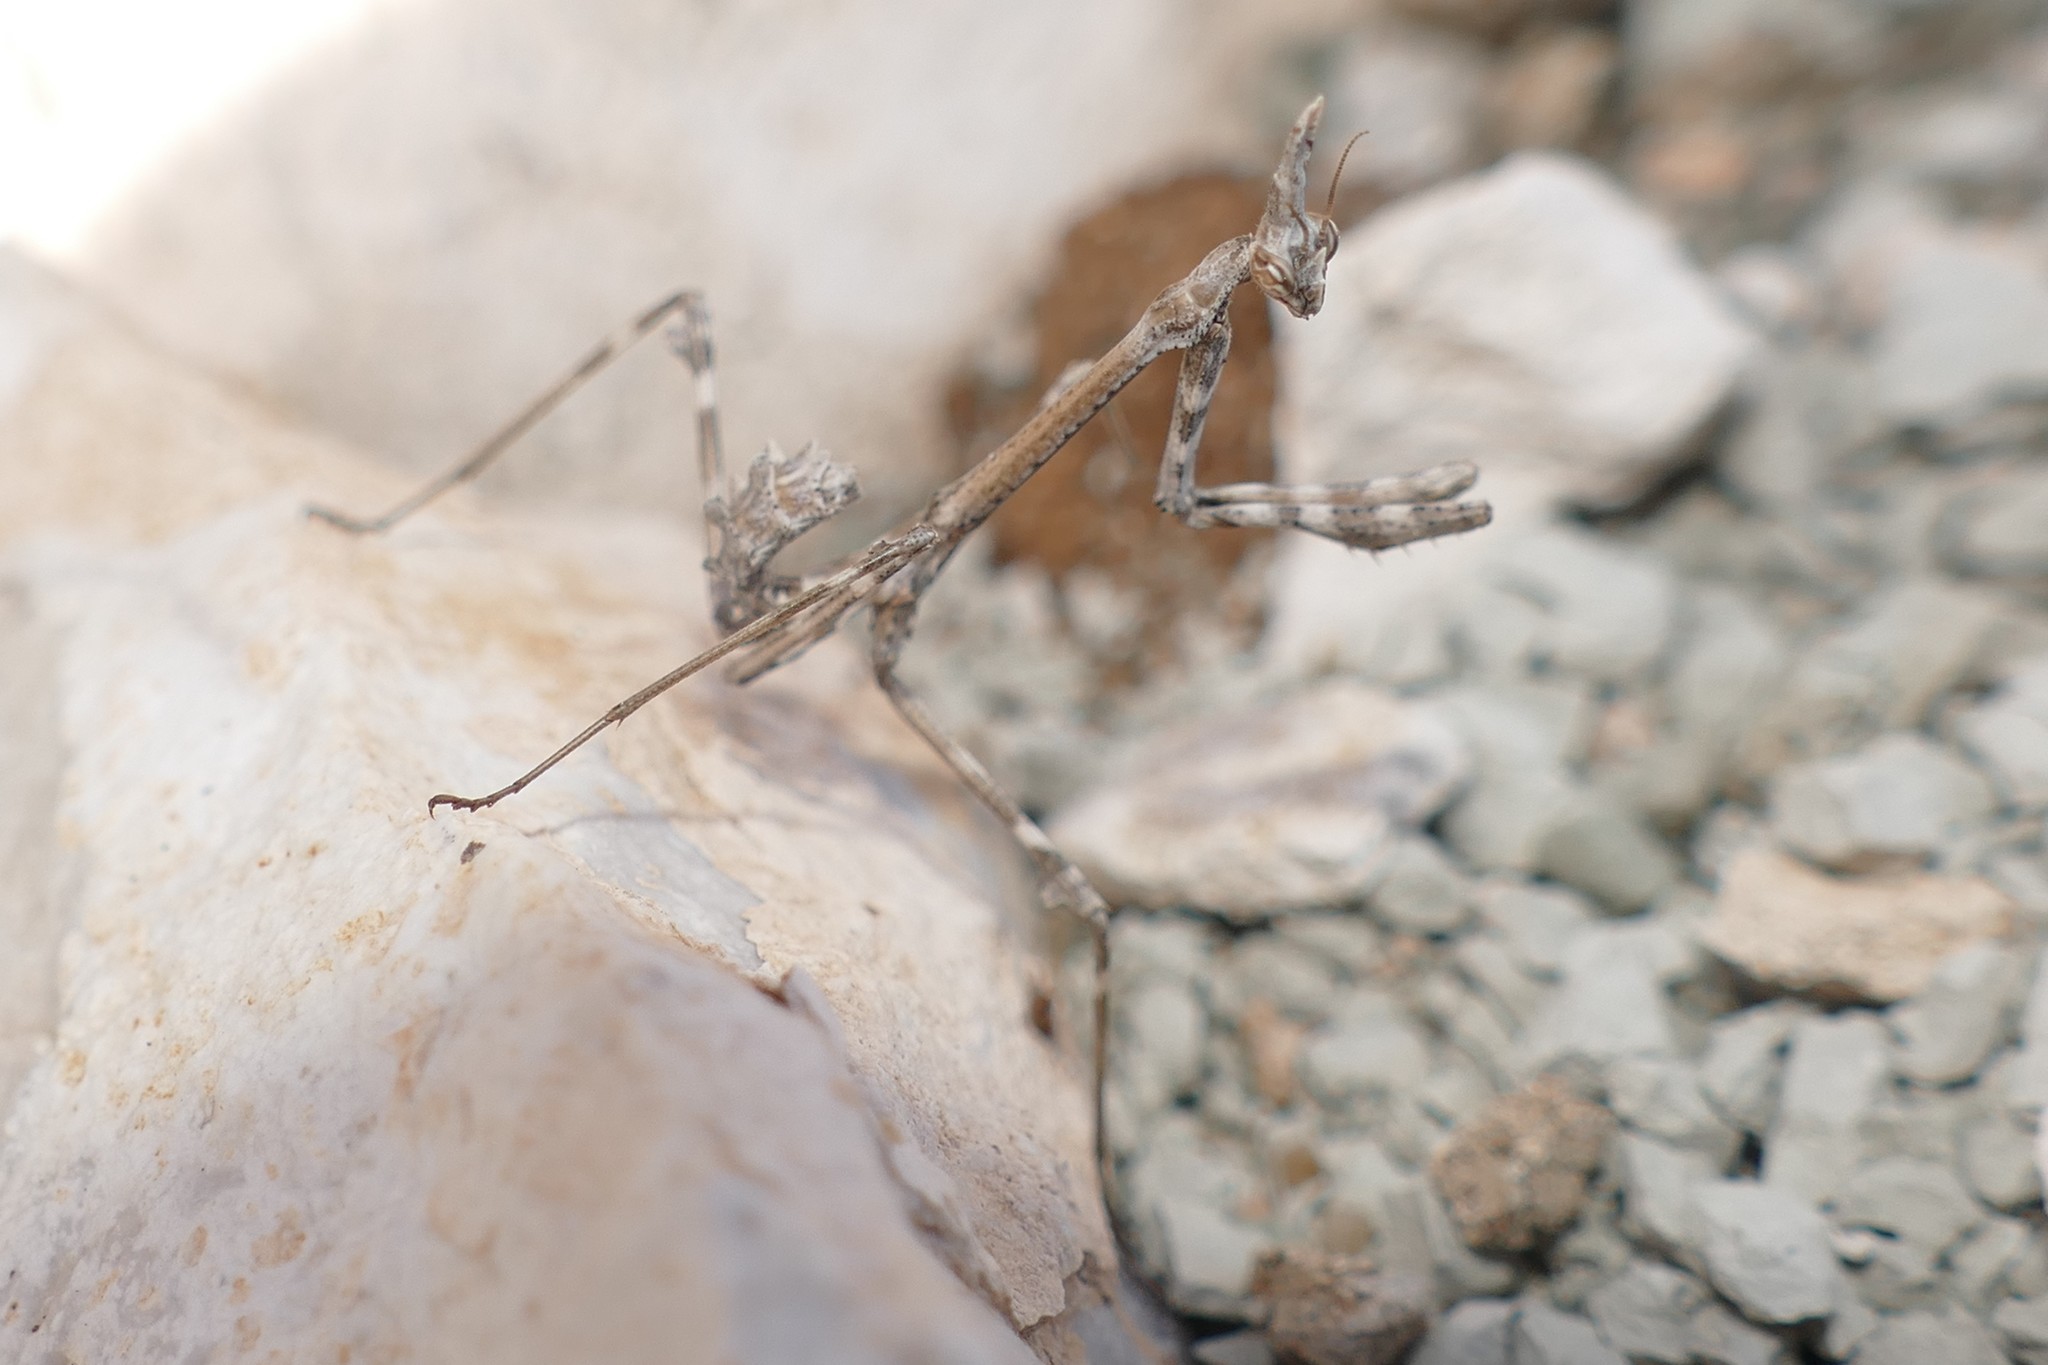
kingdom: Animalia
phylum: Arthropoda
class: Insecta
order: Mantodea
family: Empusidae
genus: Empusa
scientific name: Empusa pennata
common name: Conehead mantis
